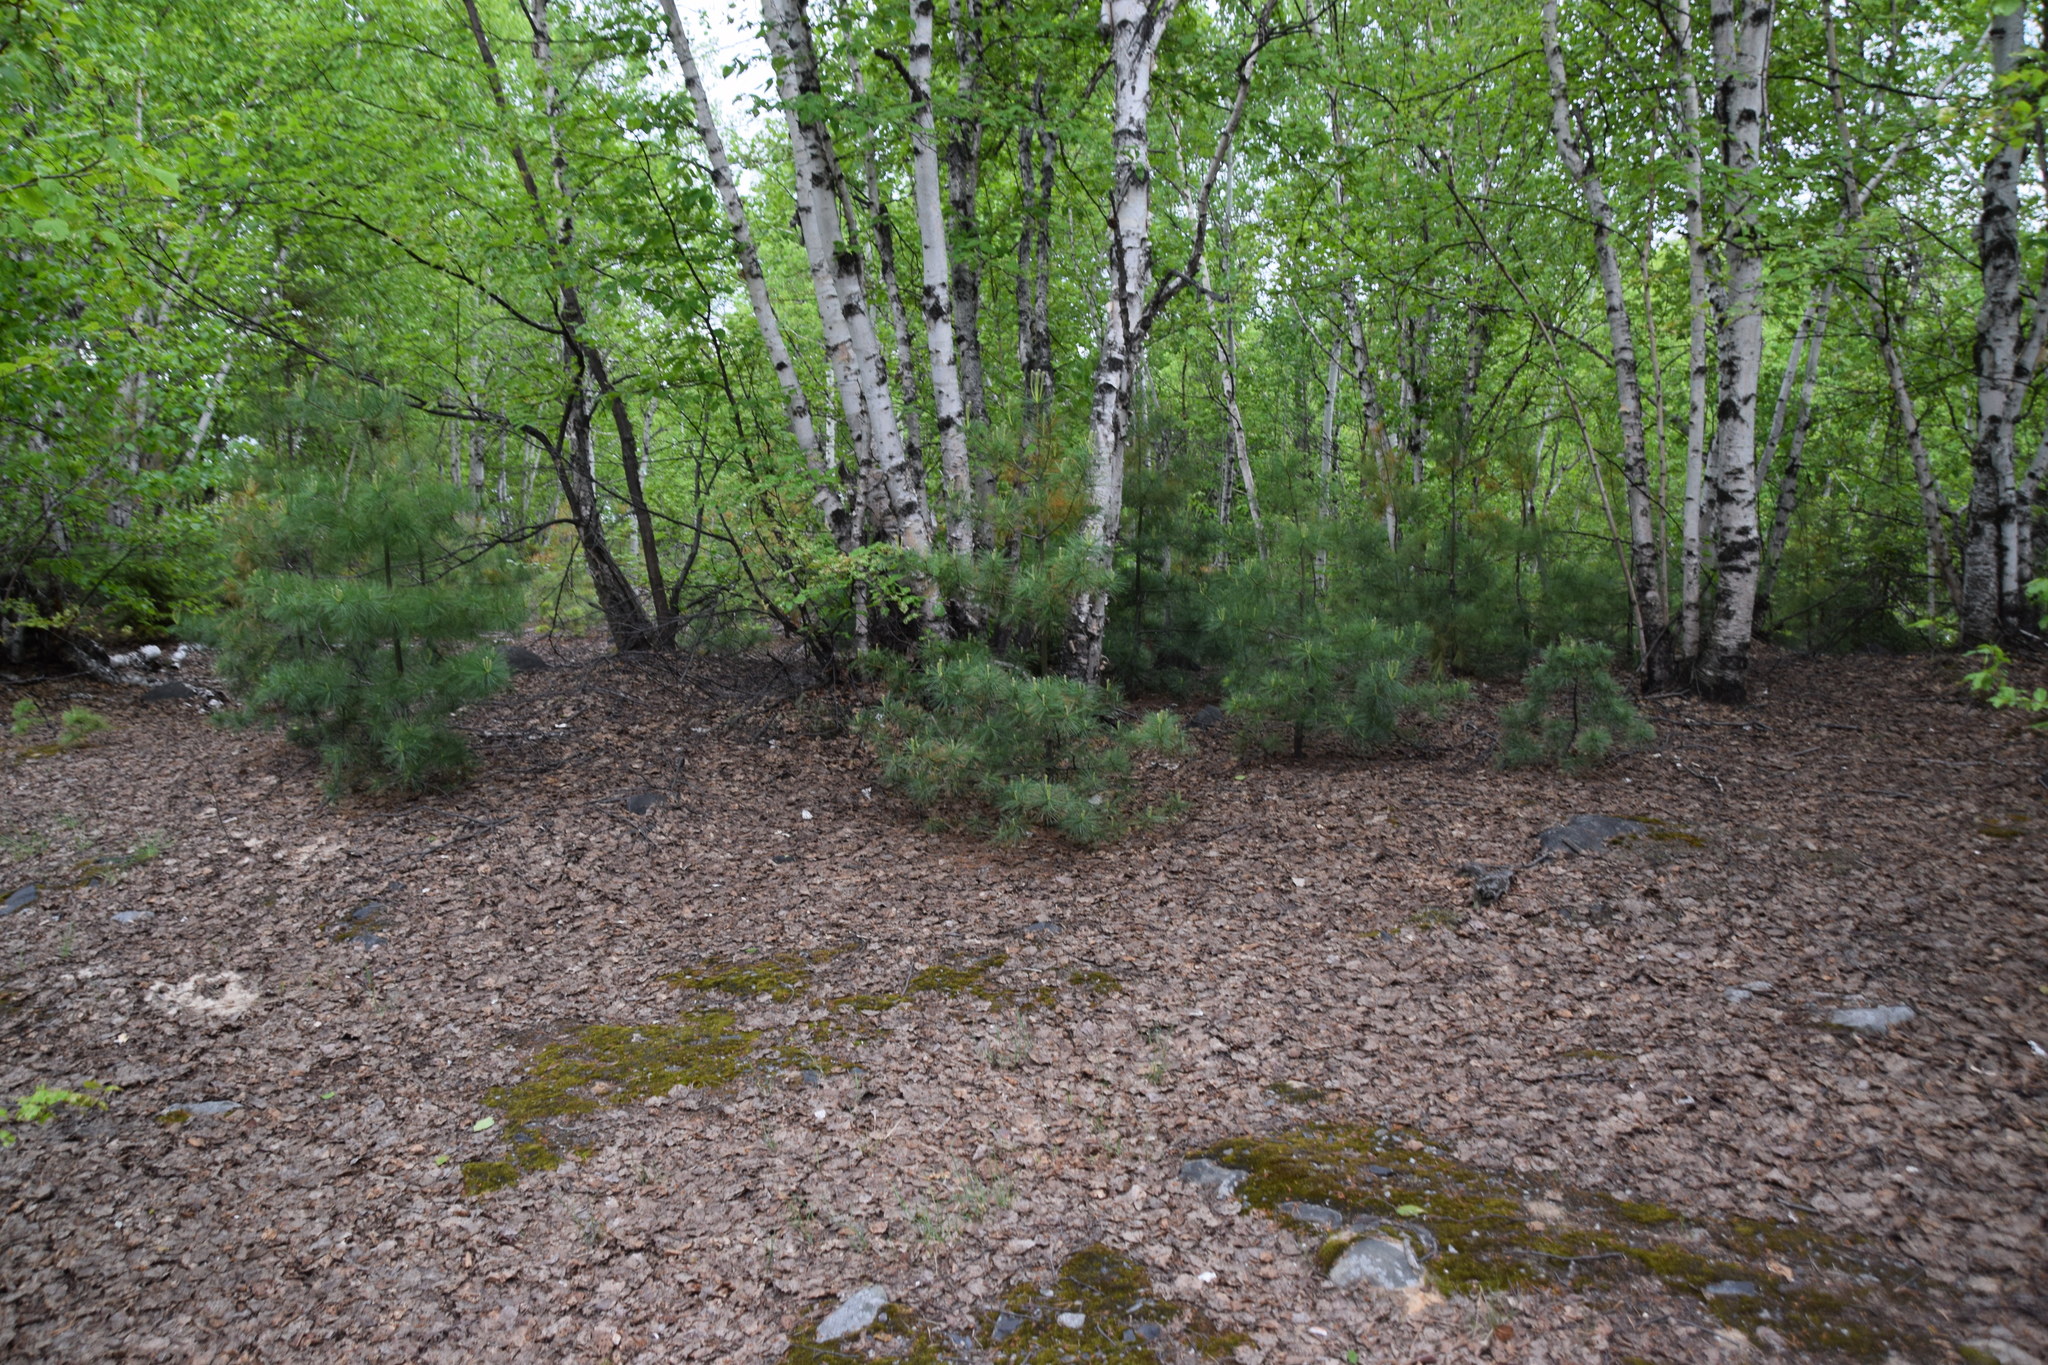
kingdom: Plantae
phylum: Tracheophyta
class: Pinopsida
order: Pinales
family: Pinaceae
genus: Pinus
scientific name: Pinus strobus
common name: Weymouth pine
